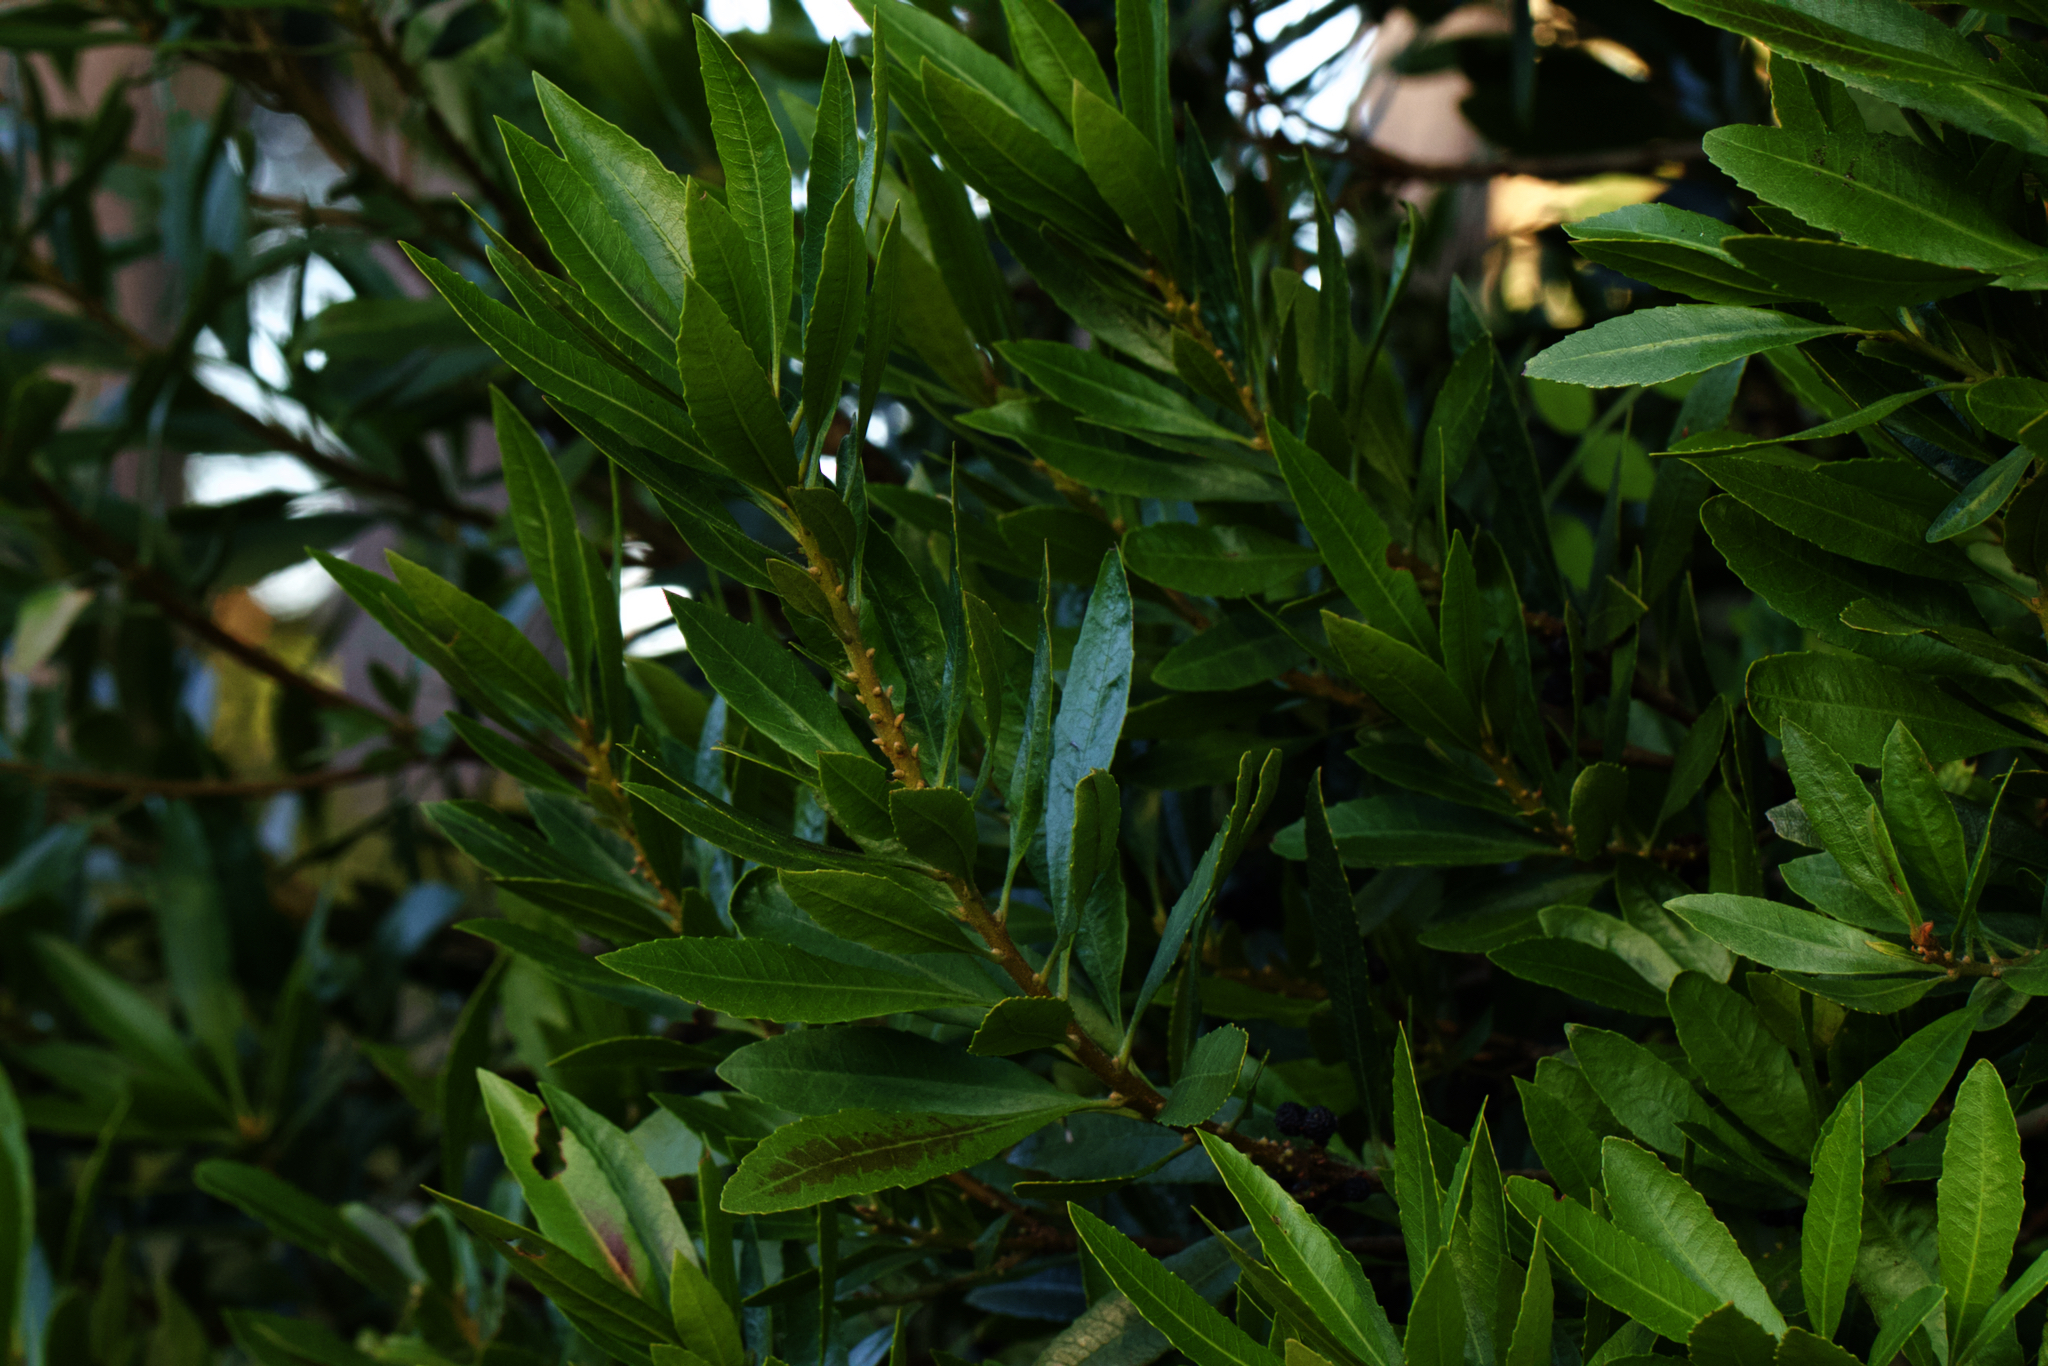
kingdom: Plantae
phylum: Tracheophyta
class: Magnoliopsida
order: Fagales
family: Myricaceae
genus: Morella
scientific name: Morella californica
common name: California wax-myrtle
